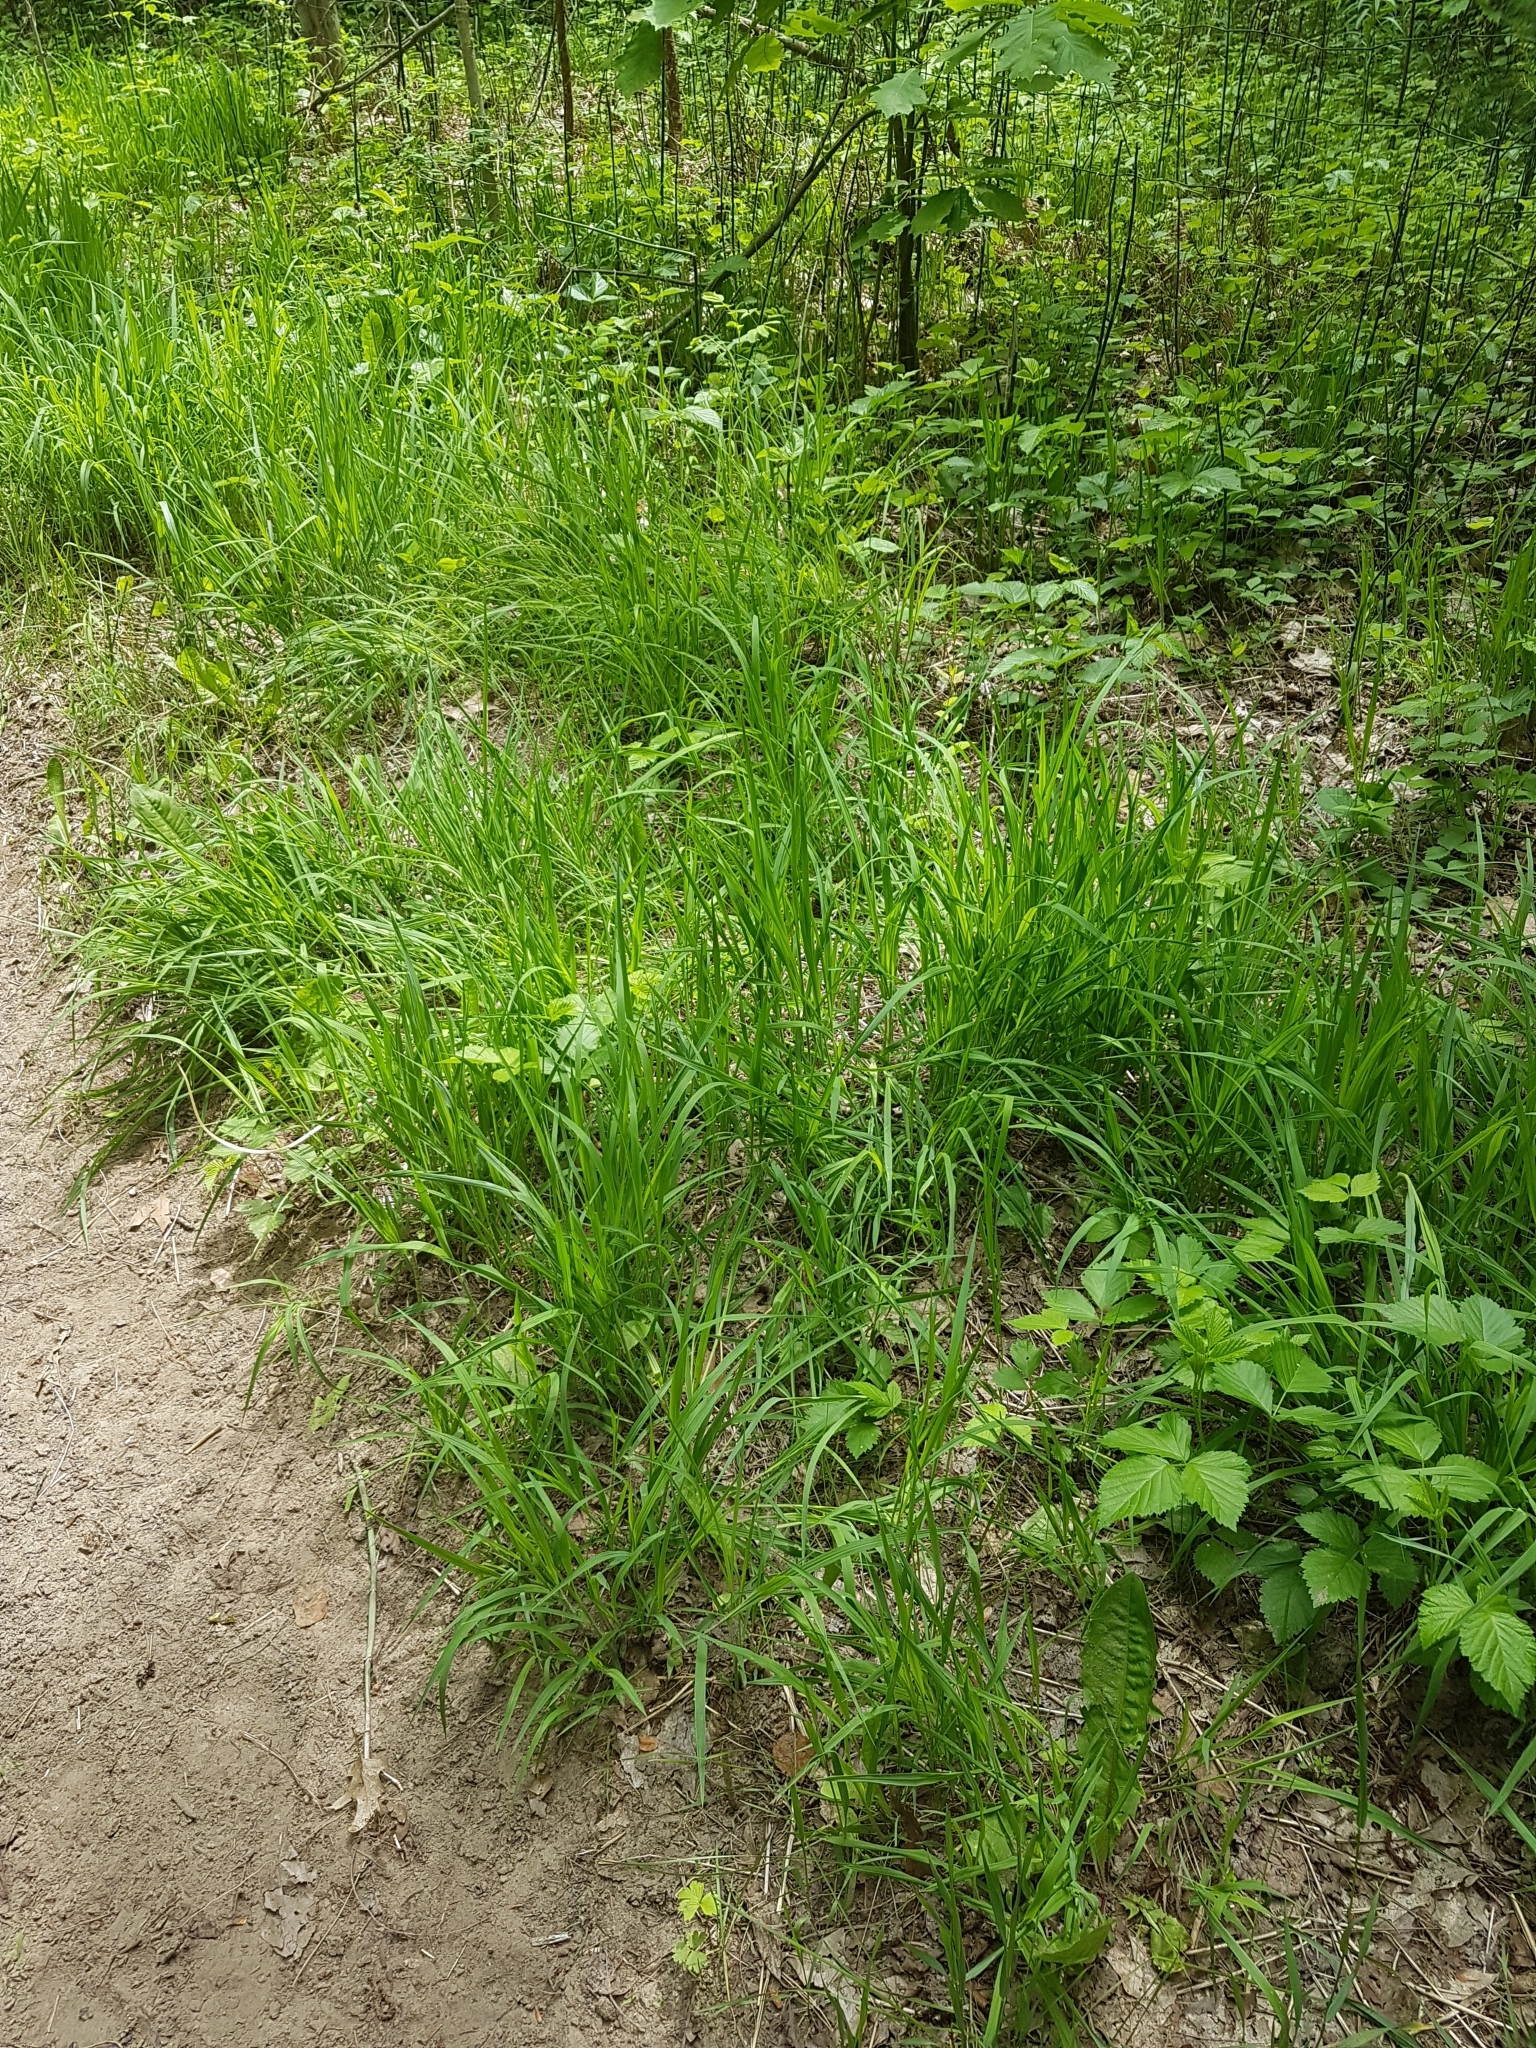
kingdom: Plantae
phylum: Tracheophyta
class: Liliopsida
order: Poales
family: Poaceae
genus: Andropogon
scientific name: Andropogon gerardi
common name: Big bluestem
